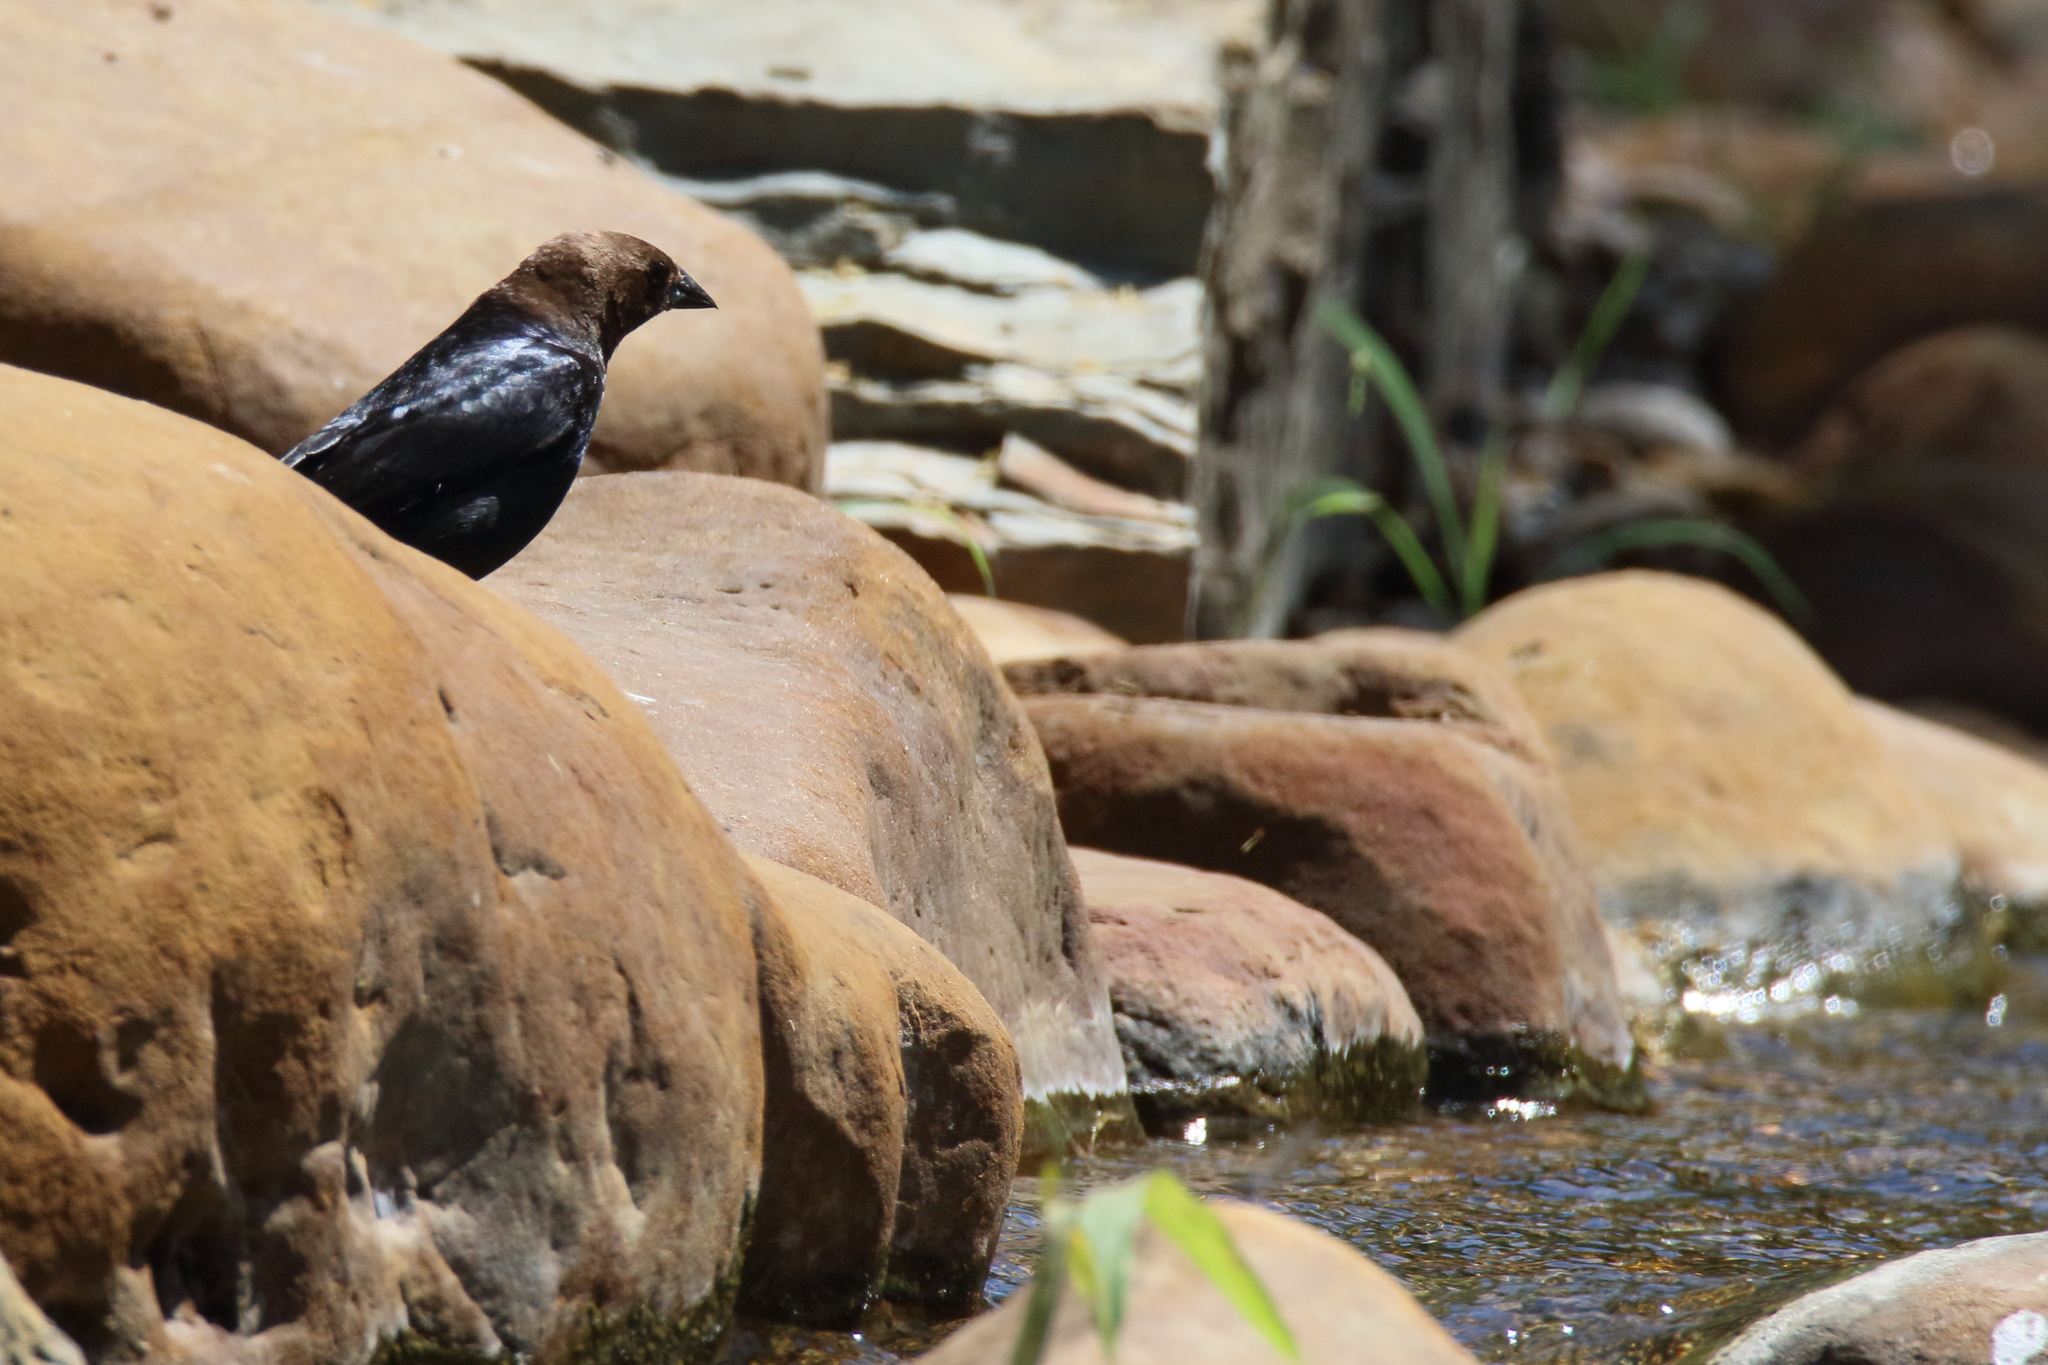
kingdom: Animalia
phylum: Chordata
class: Aves
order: Passeriformes
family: Icteridae
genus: Molothrus
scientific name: Molothrus ater
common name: Brown-headed cowbird
